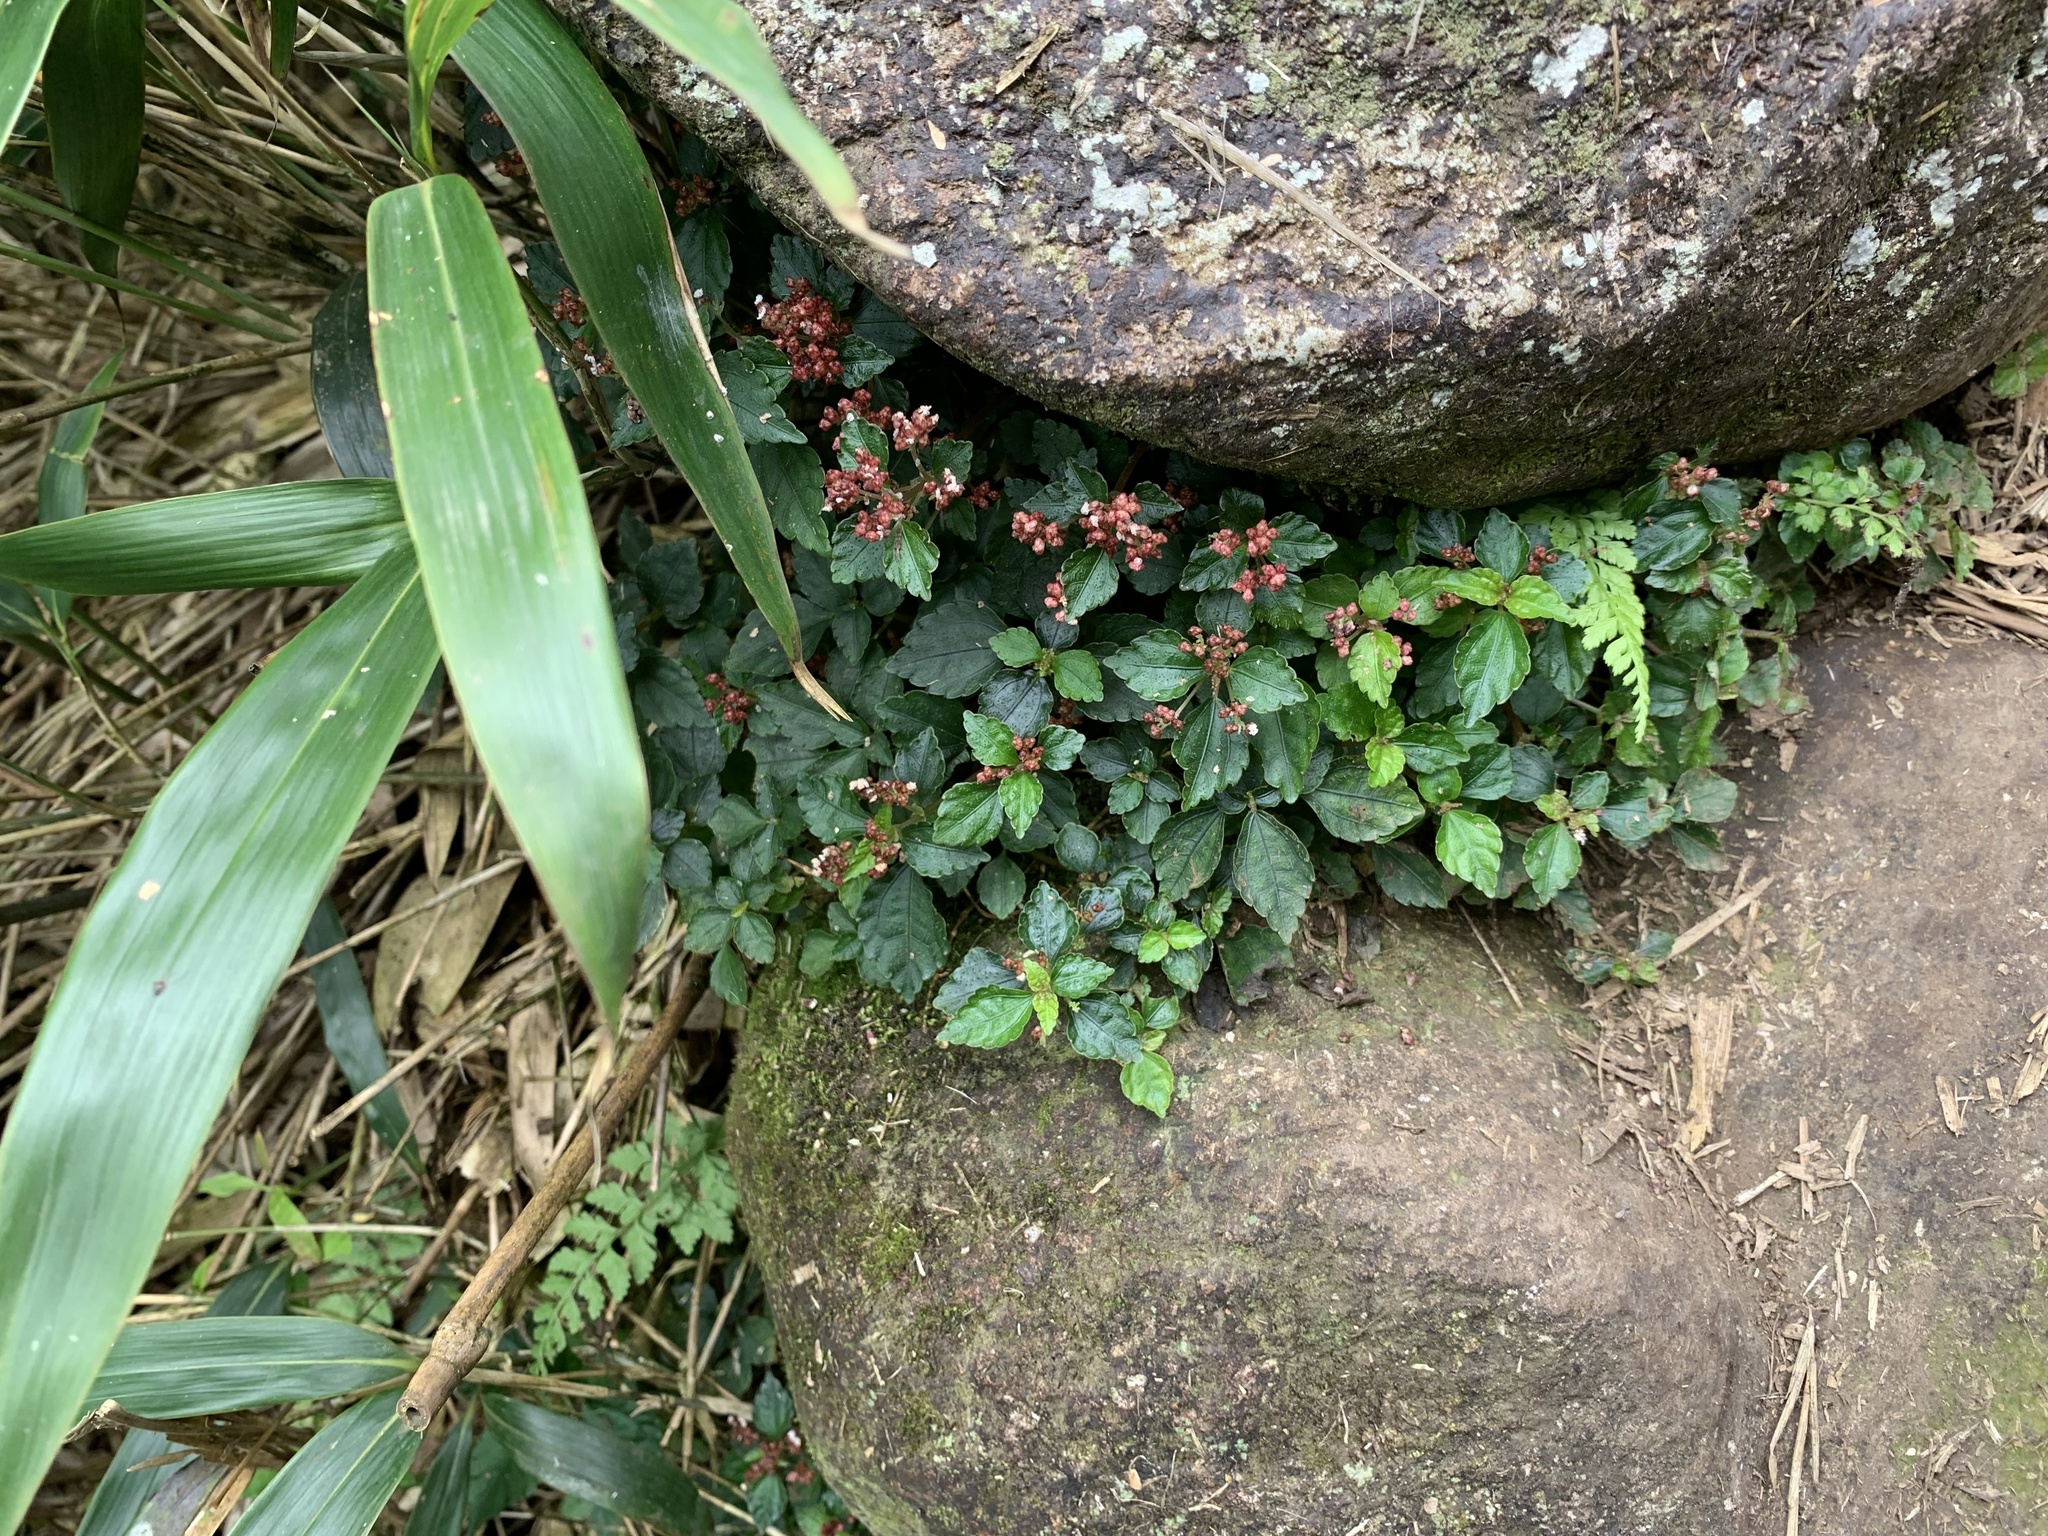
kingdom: Plantae
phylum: Tracheophyta
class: Magnoliopsida
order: Rosales
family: Urticaceae
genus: Pilea
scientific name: Pilea aquarum
